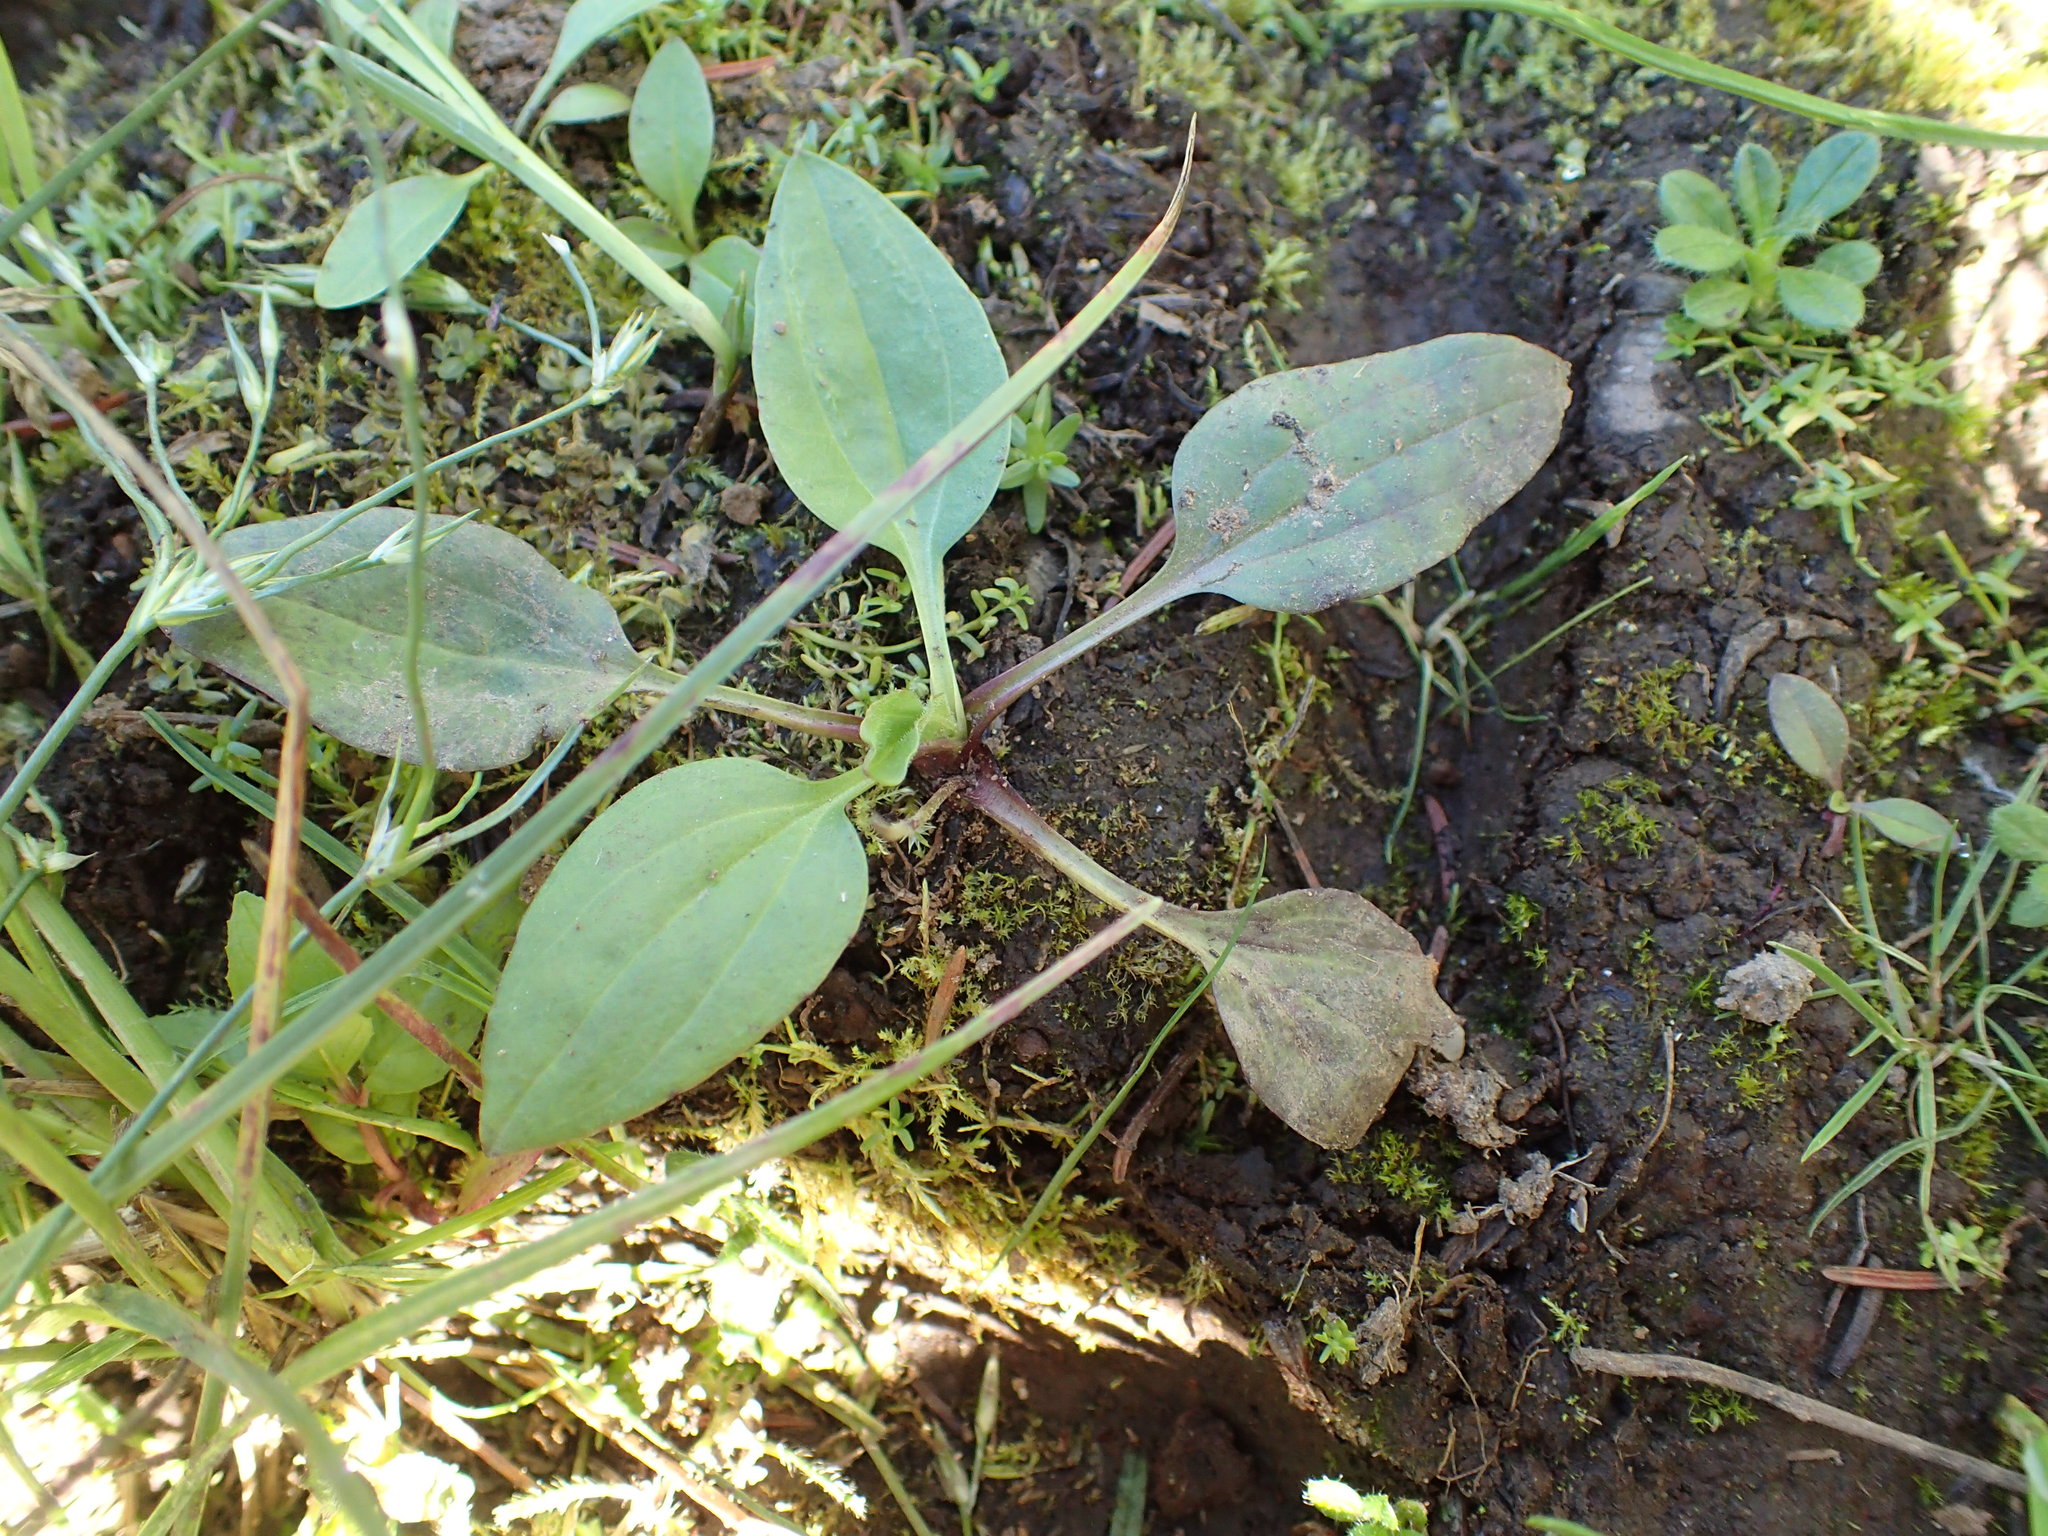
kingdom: Plantae
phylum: Tracheophyta
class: Magnoliopsida
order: Lamiales
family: Plantaginaceae
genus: Plantago
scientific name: Plantago major
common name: Common plantain
